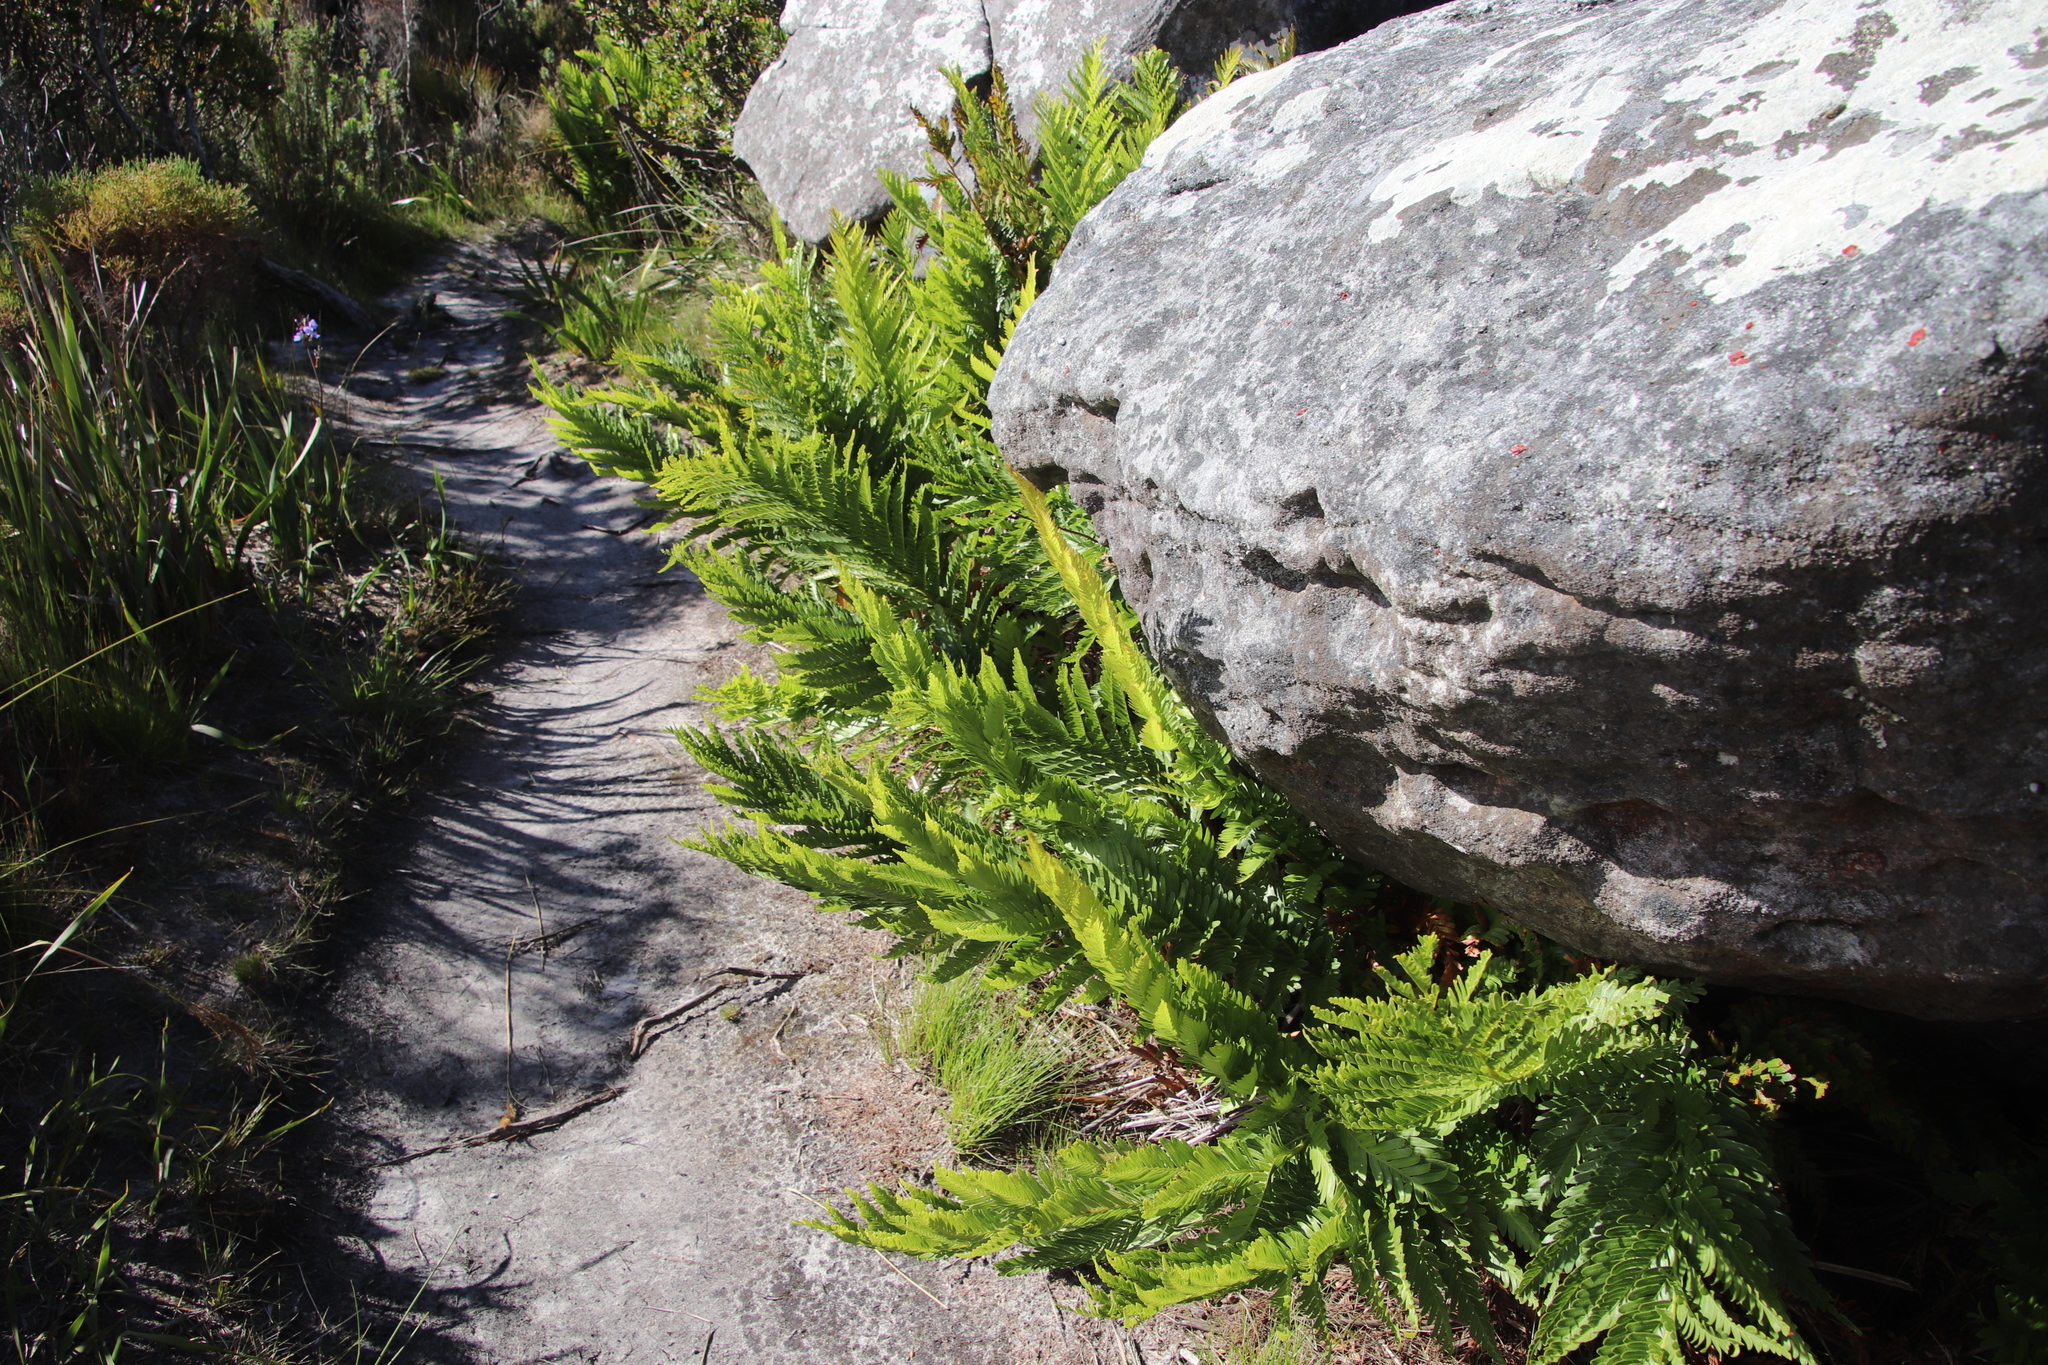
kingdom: Plantae
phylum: Tracheophyta
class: Polypodiopsida
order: Osmundales
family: Osmundaceae
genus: Todea
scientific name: Todea barbara
